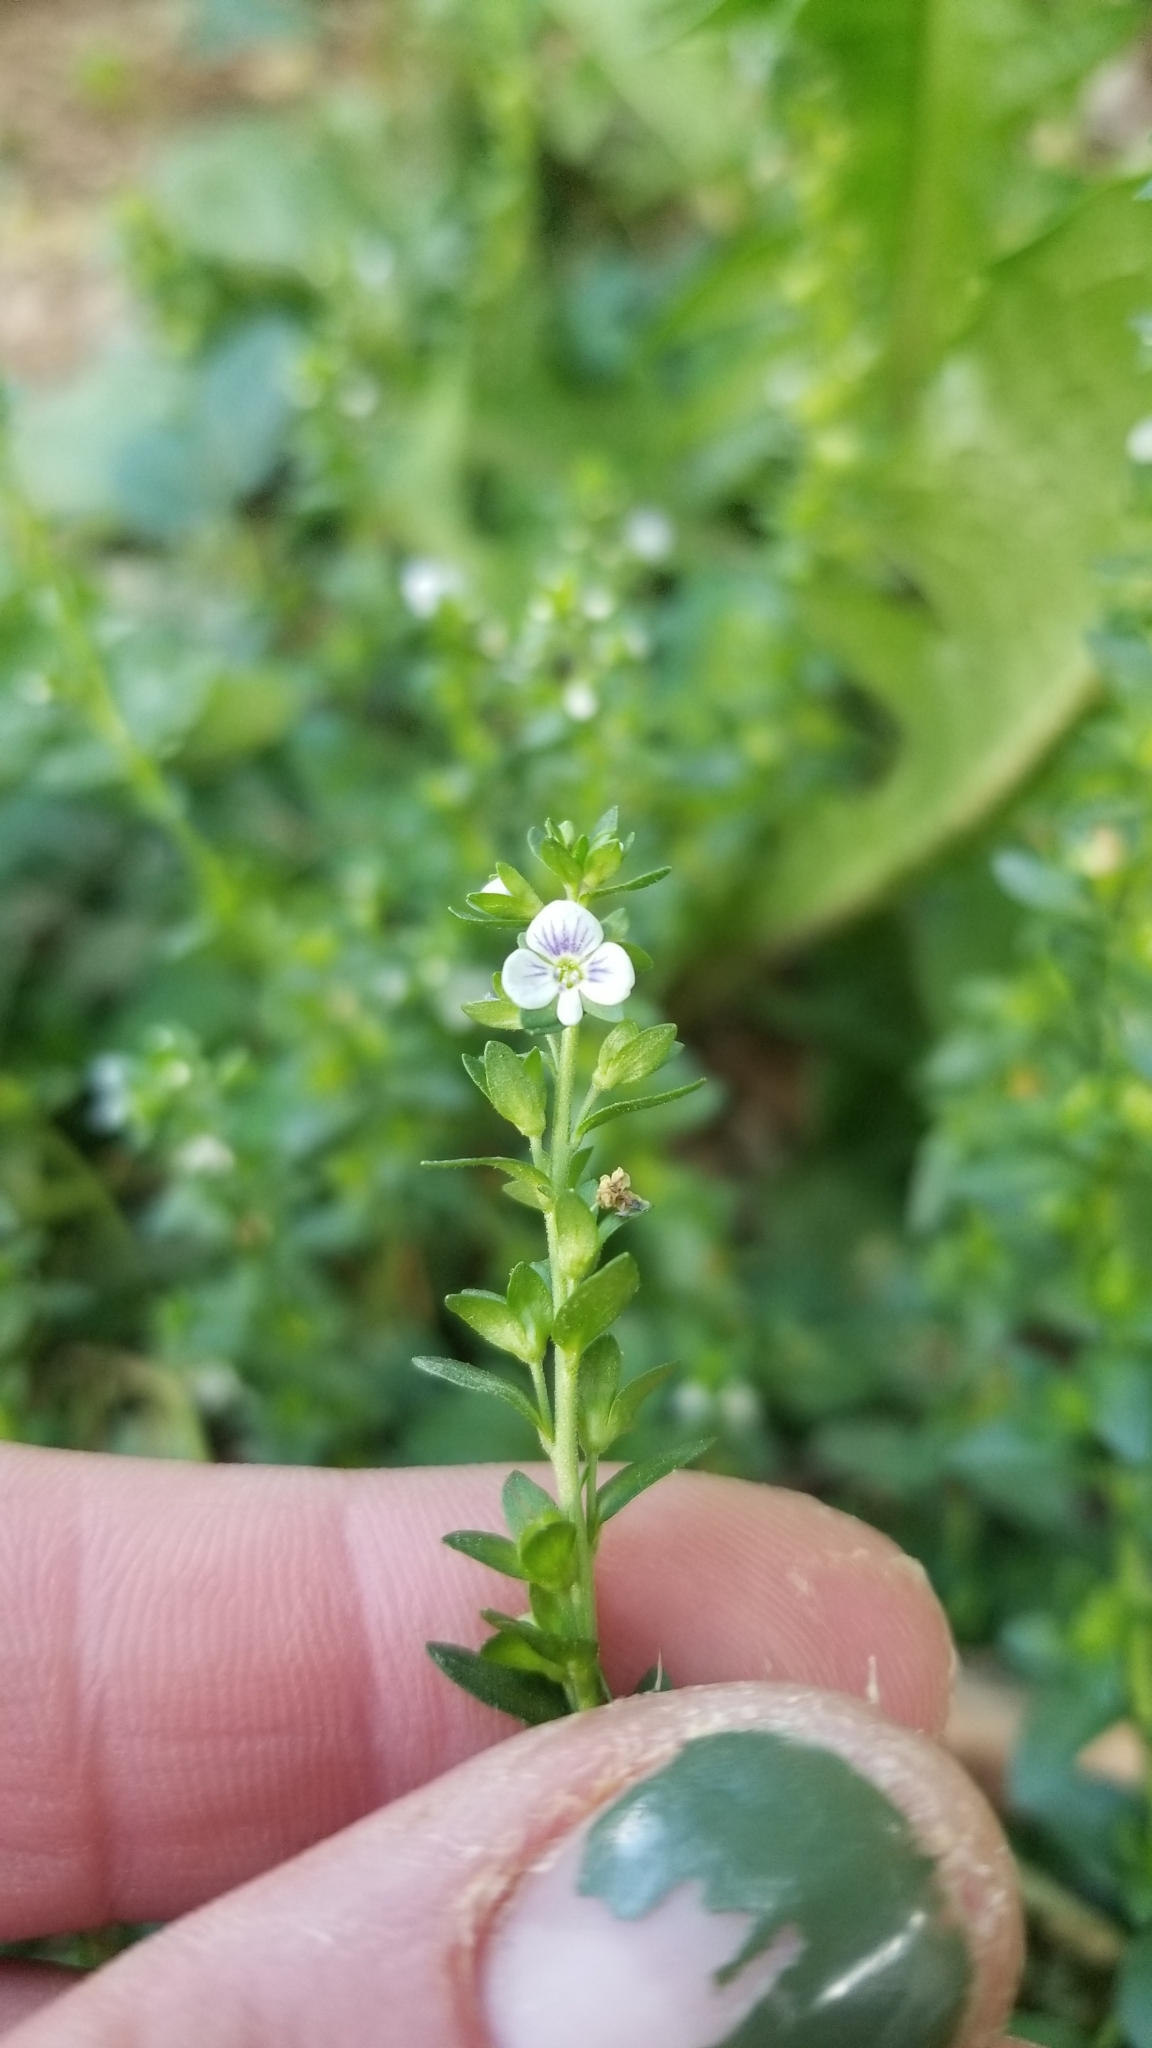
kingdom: Plantae
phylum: Tracheophyta
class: Magnoliopsida
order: Lamiales
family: Plantaginaceae
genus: Veronica
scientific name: Veronica serpyllifolia
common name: Thyme-leaved speedwell
